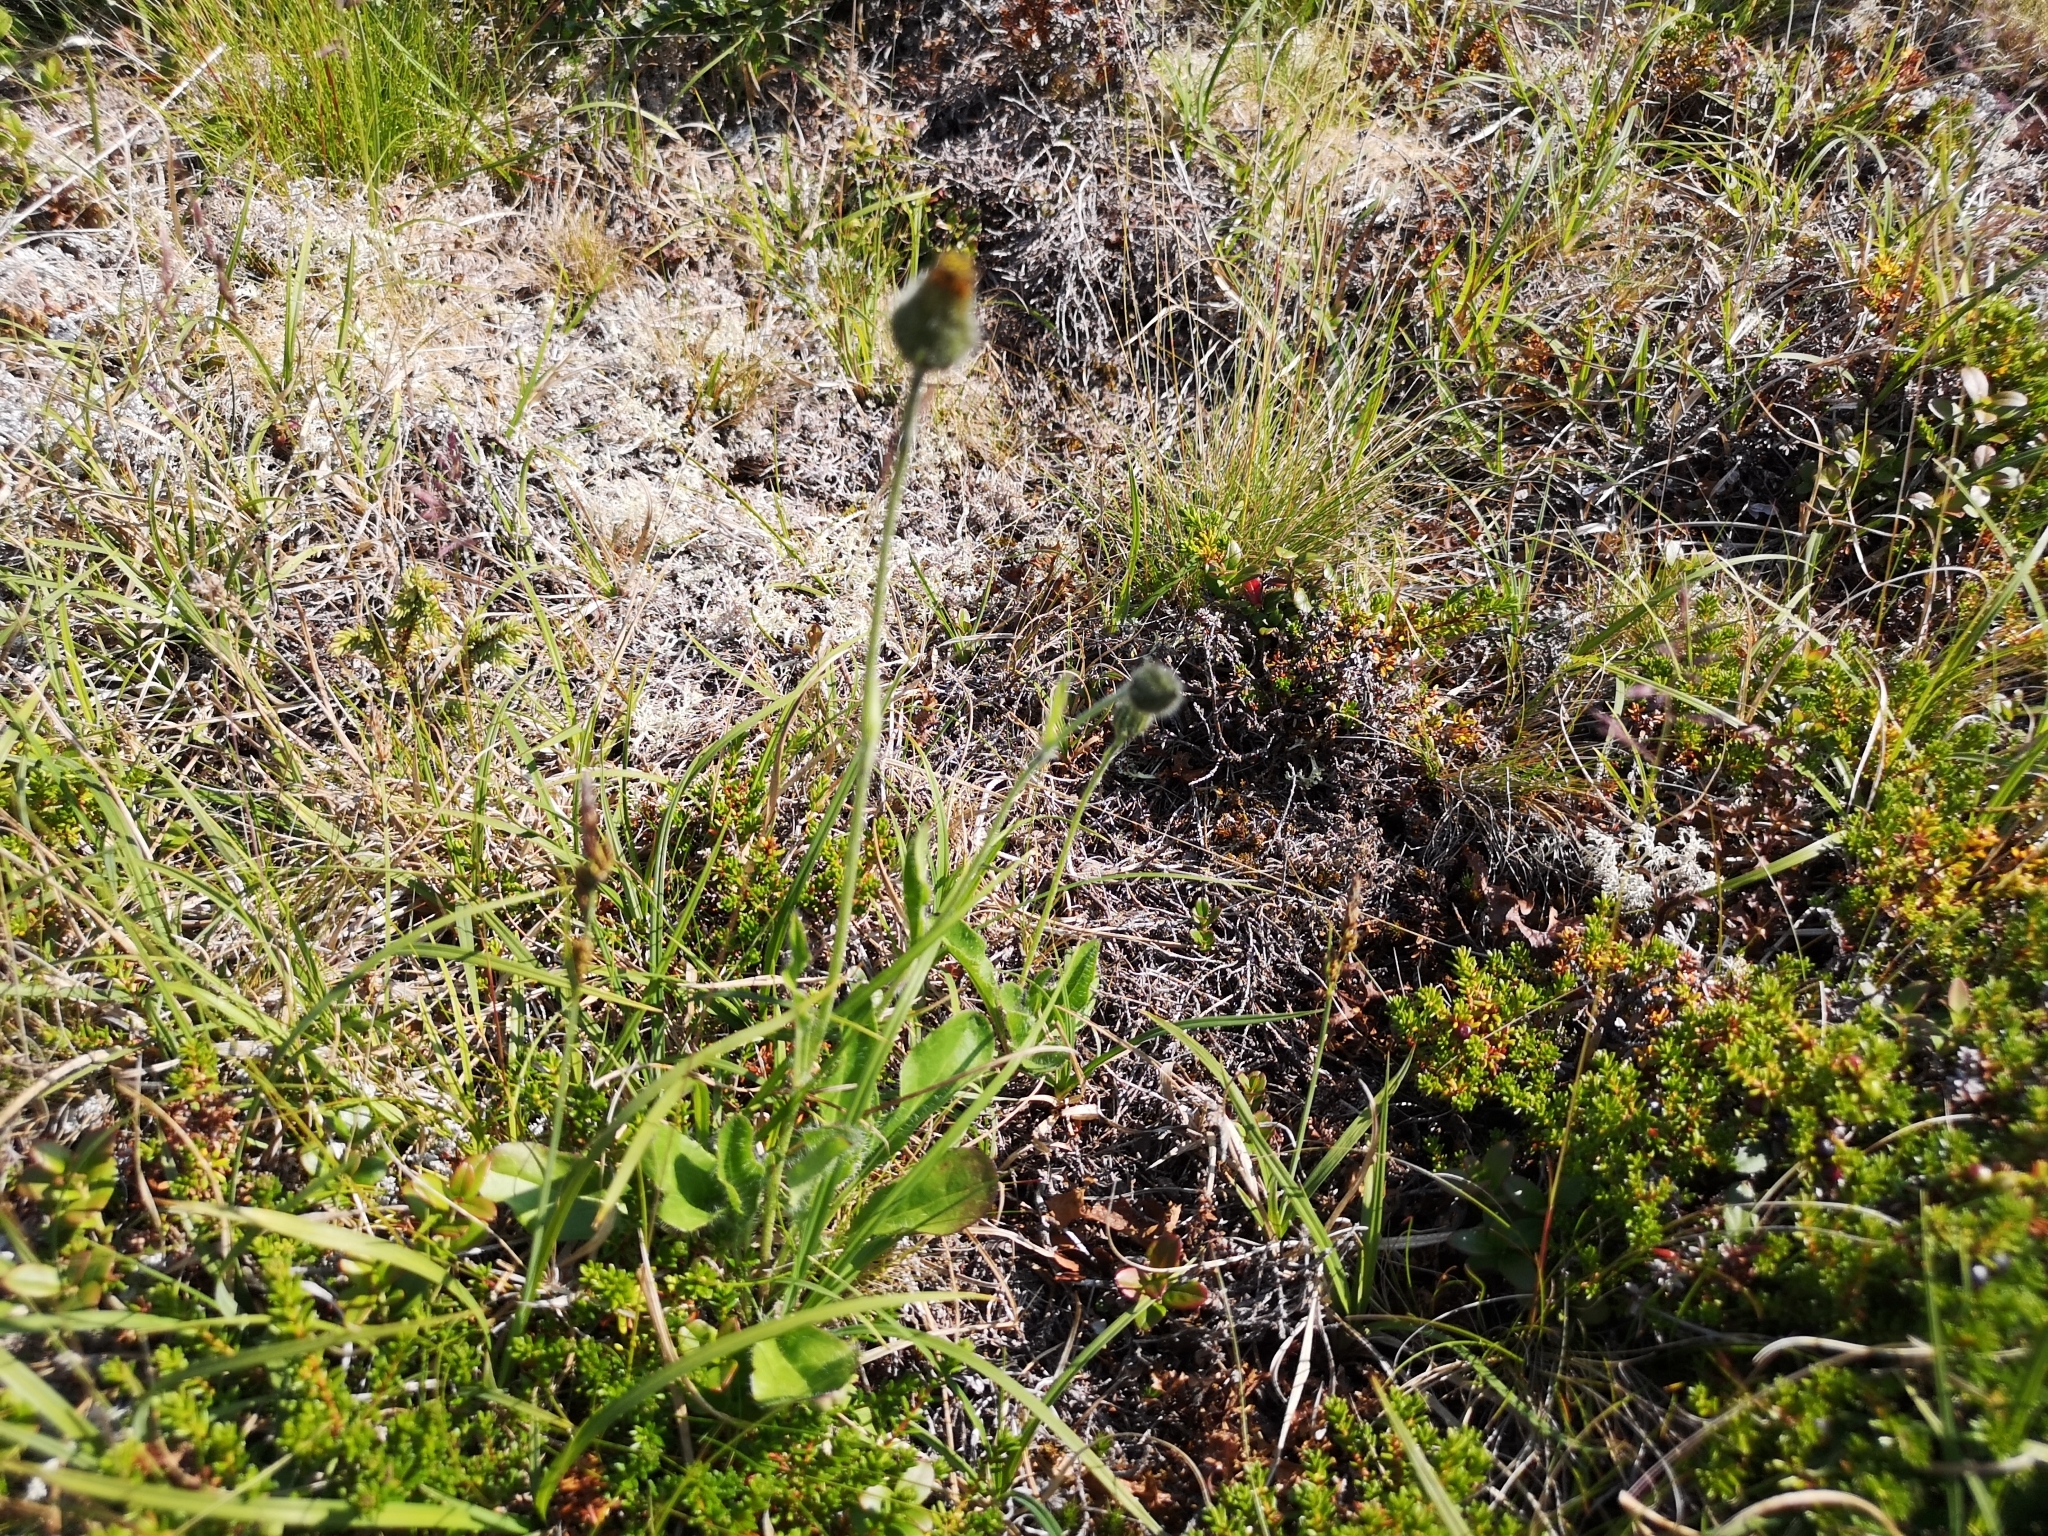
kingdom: Plantae
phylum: Tracheophyta
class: Magnoliopsida
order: Asterales
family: Asteraceae
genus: Hieracium
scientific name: Hieracium alpinum
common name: Alpine hawkweed
